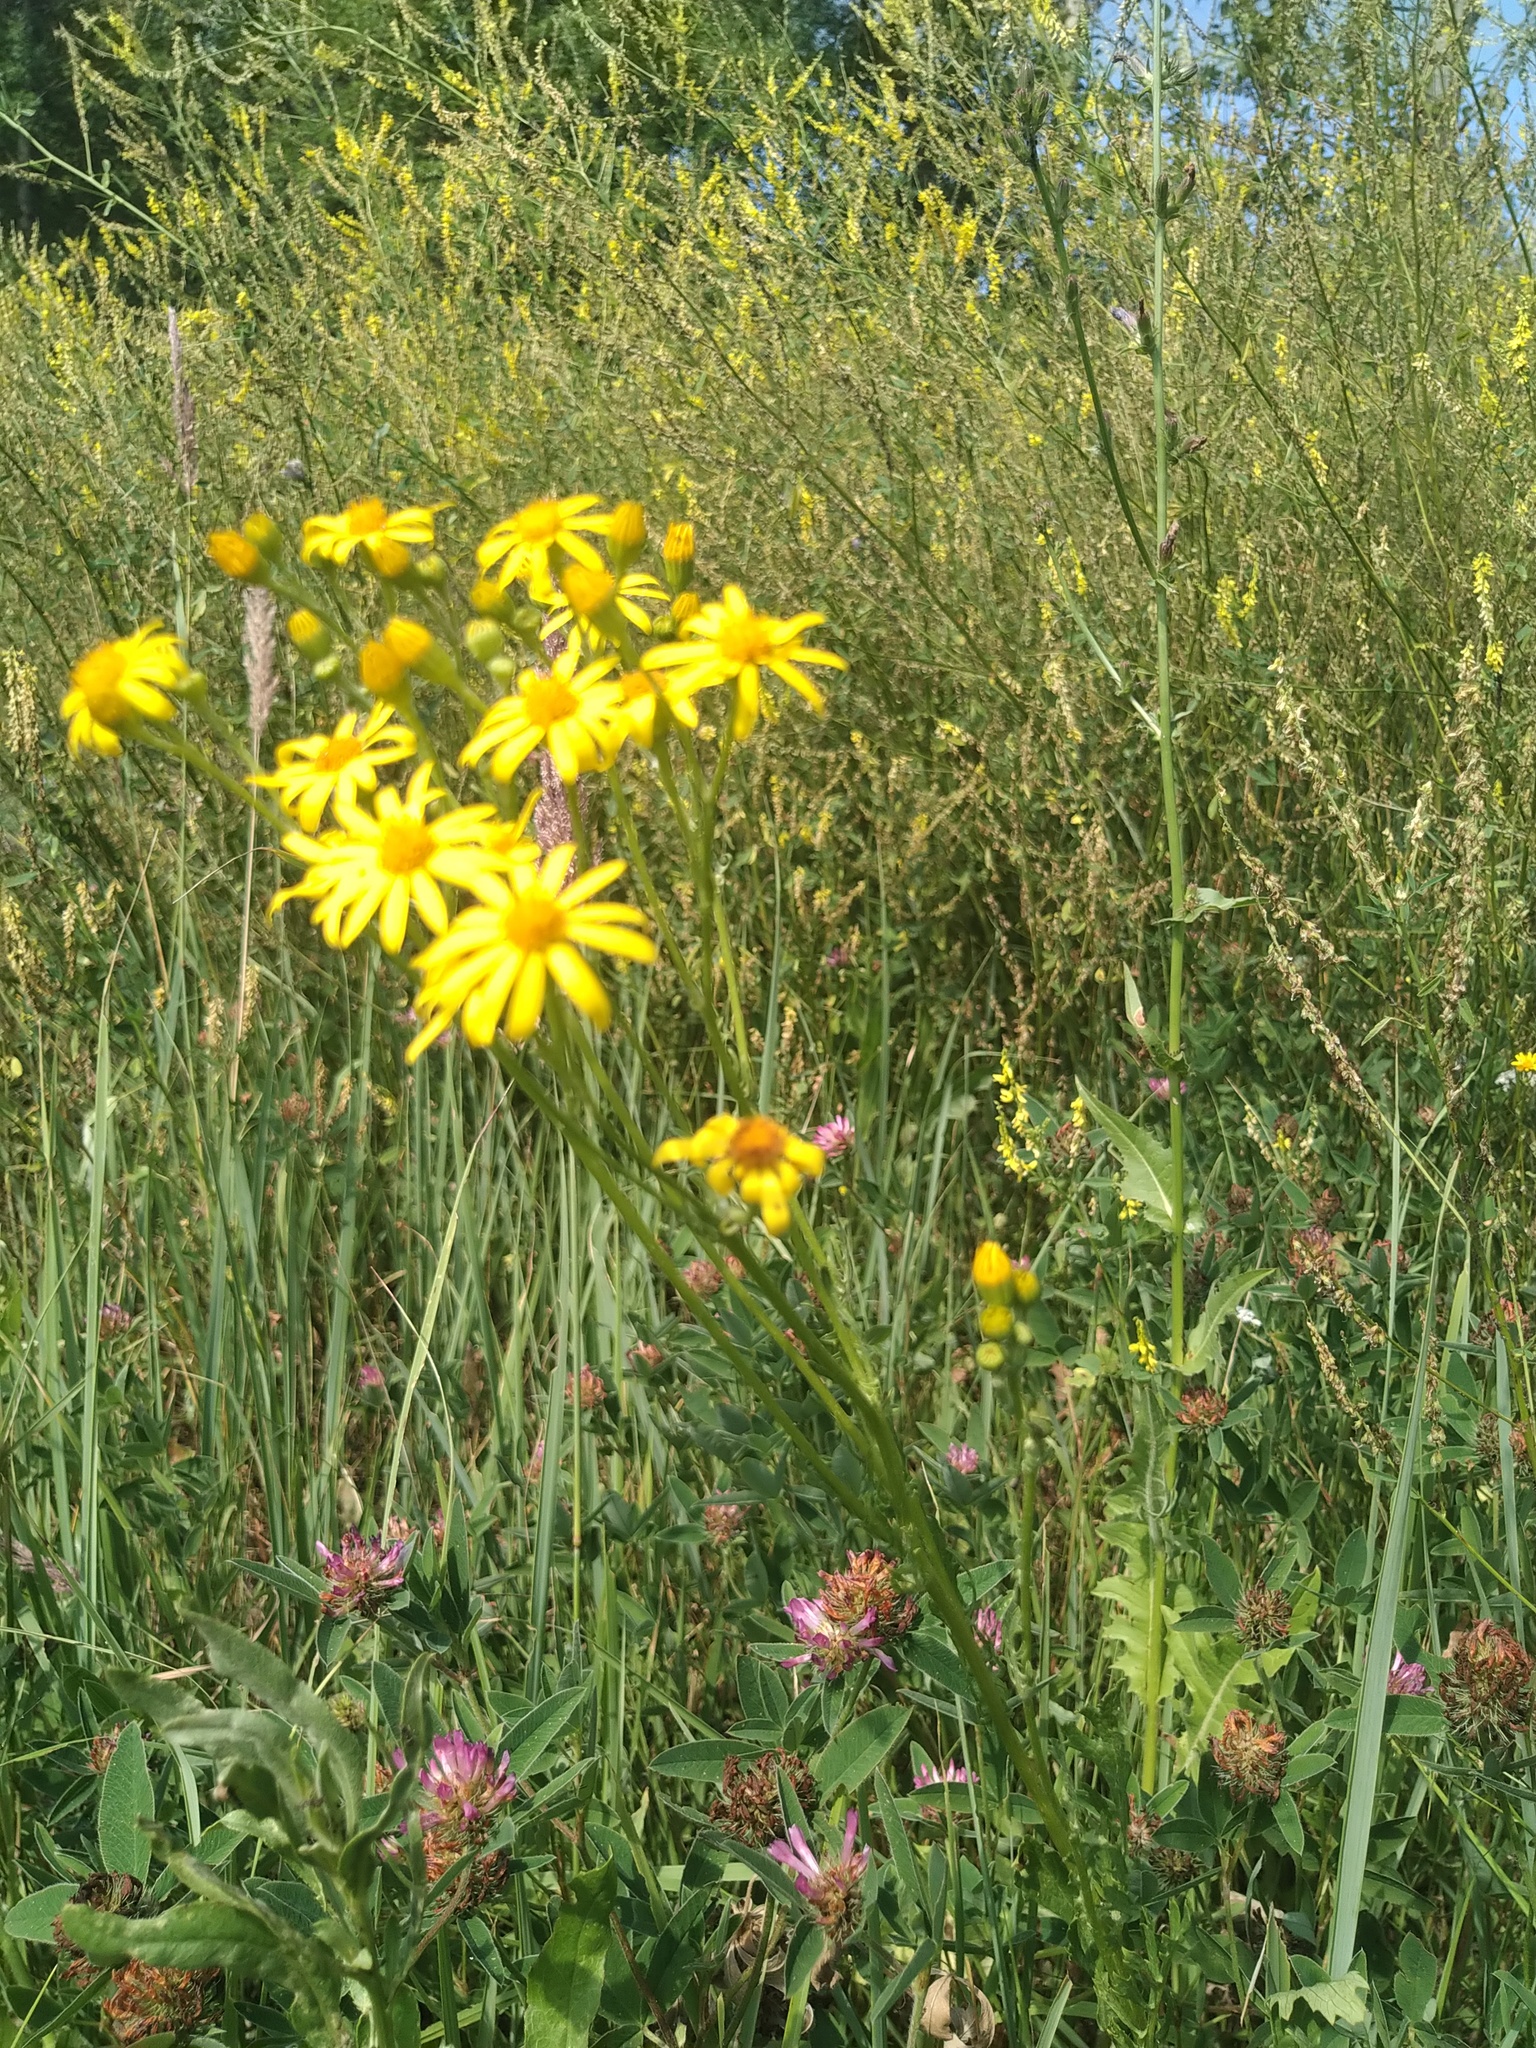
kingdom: Plantae
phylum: Tracheophyta
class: Magnoliopsida
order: Asterales
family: Asteraceae
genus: Jacobaea
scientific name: Jacobaea vulgaris
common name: Stinking willie
